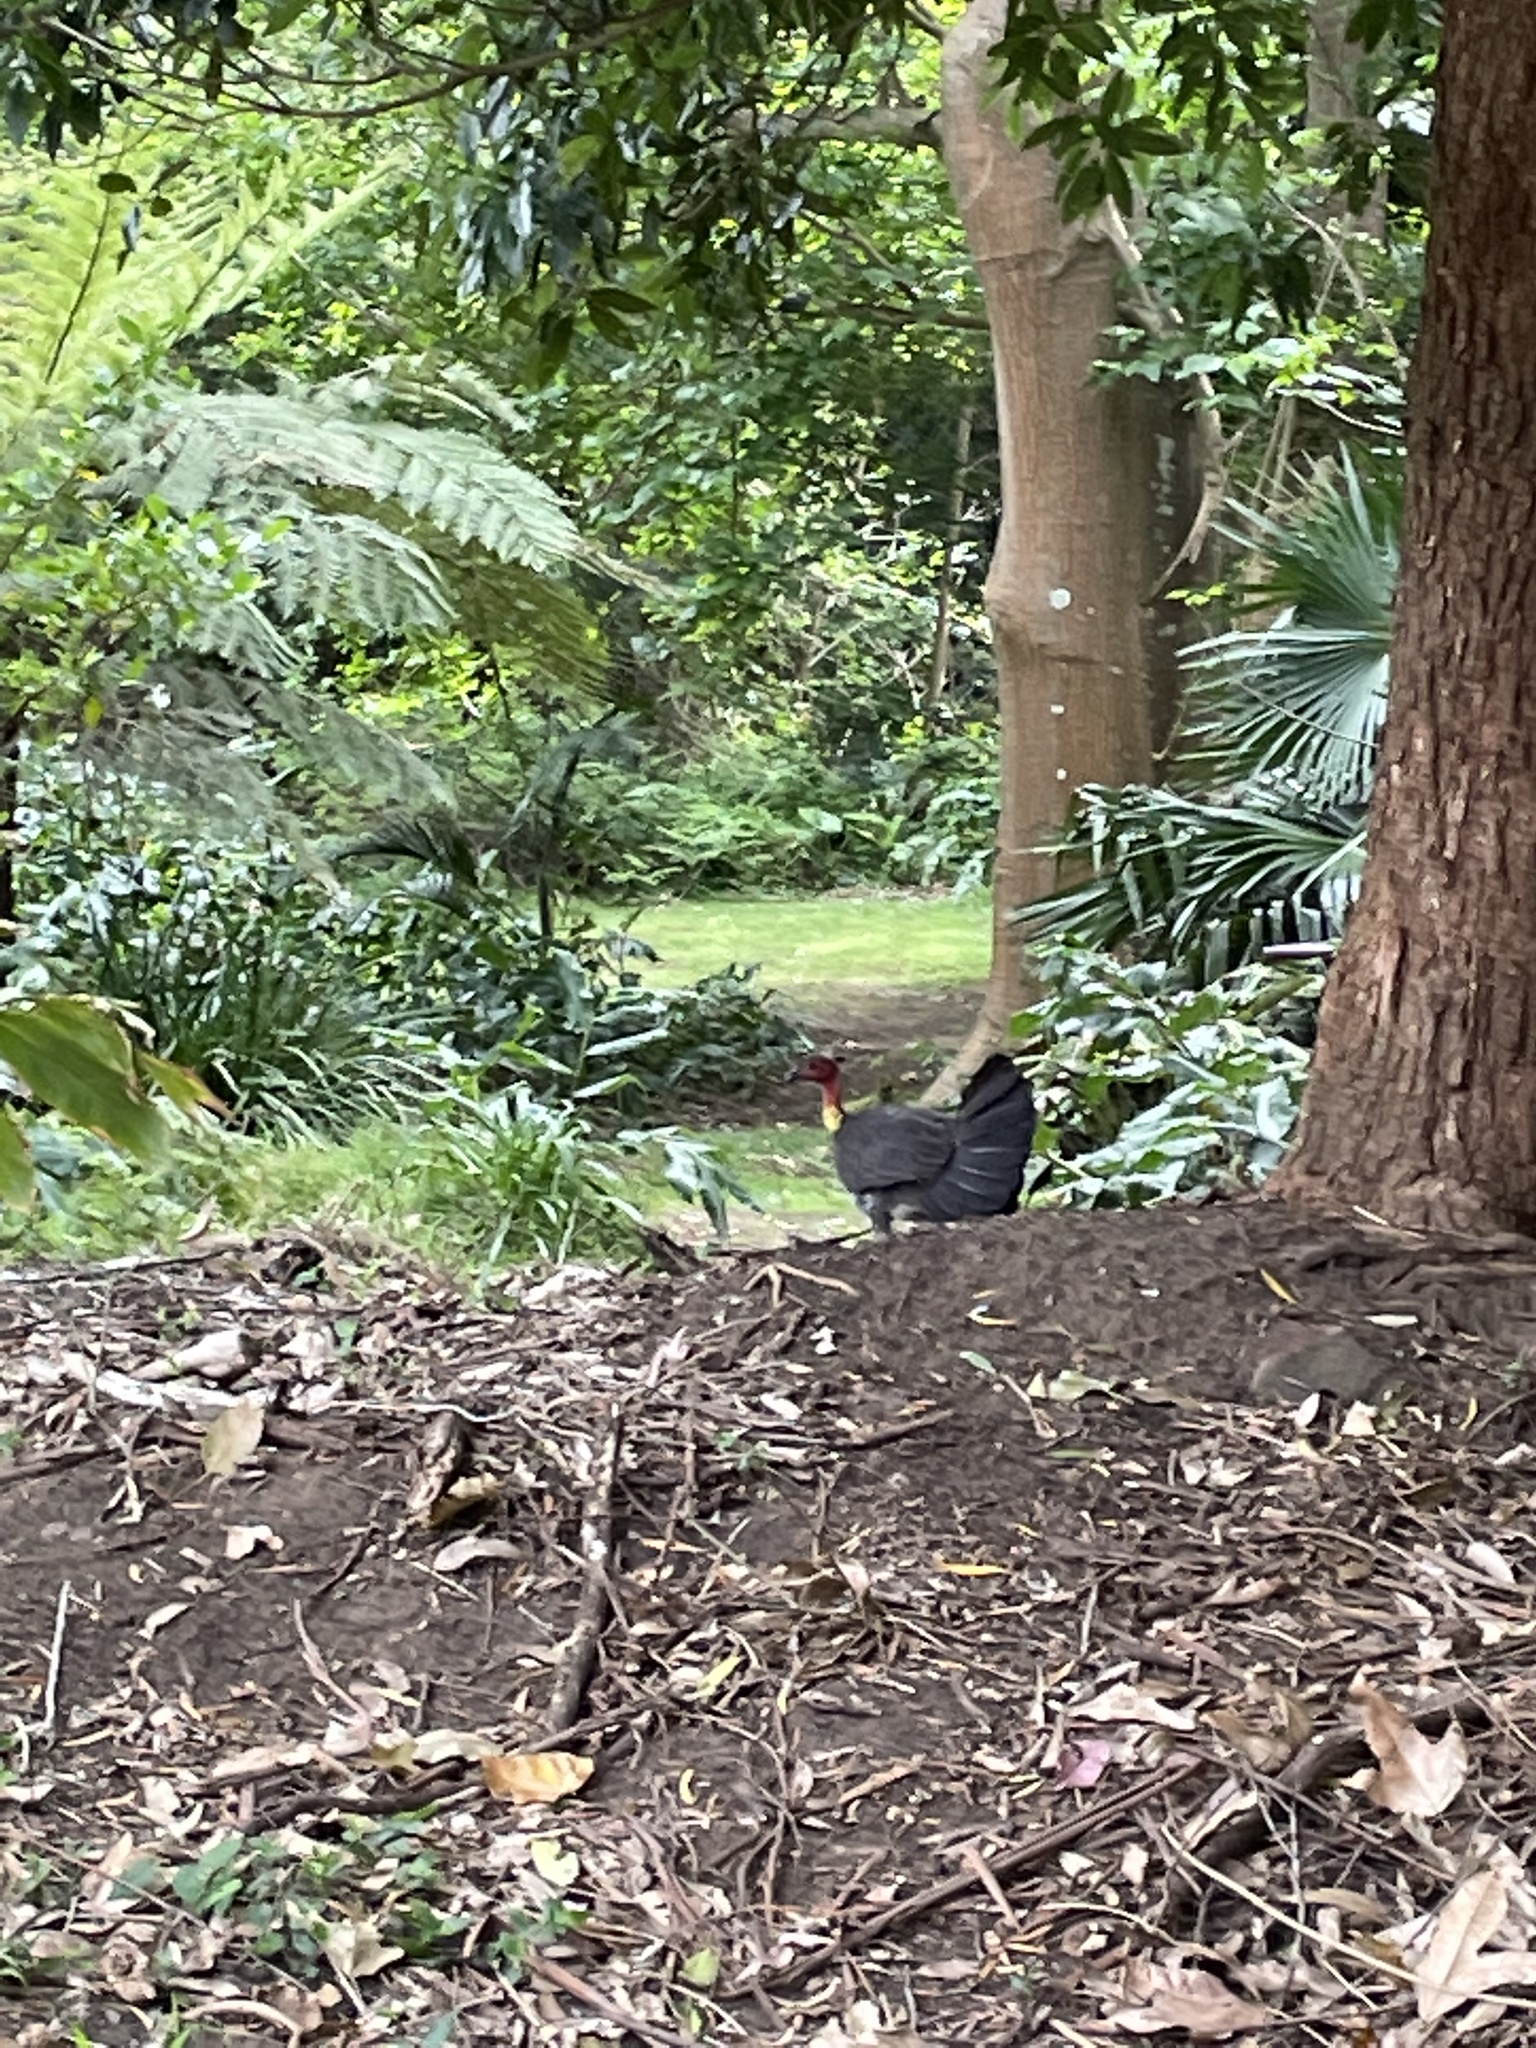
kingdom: Animalia
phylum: Chordata
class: Aves
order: Galliformes
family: Megapodiidae
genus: Alectura
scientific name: Alectura lathami
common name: Australian brushturkey
